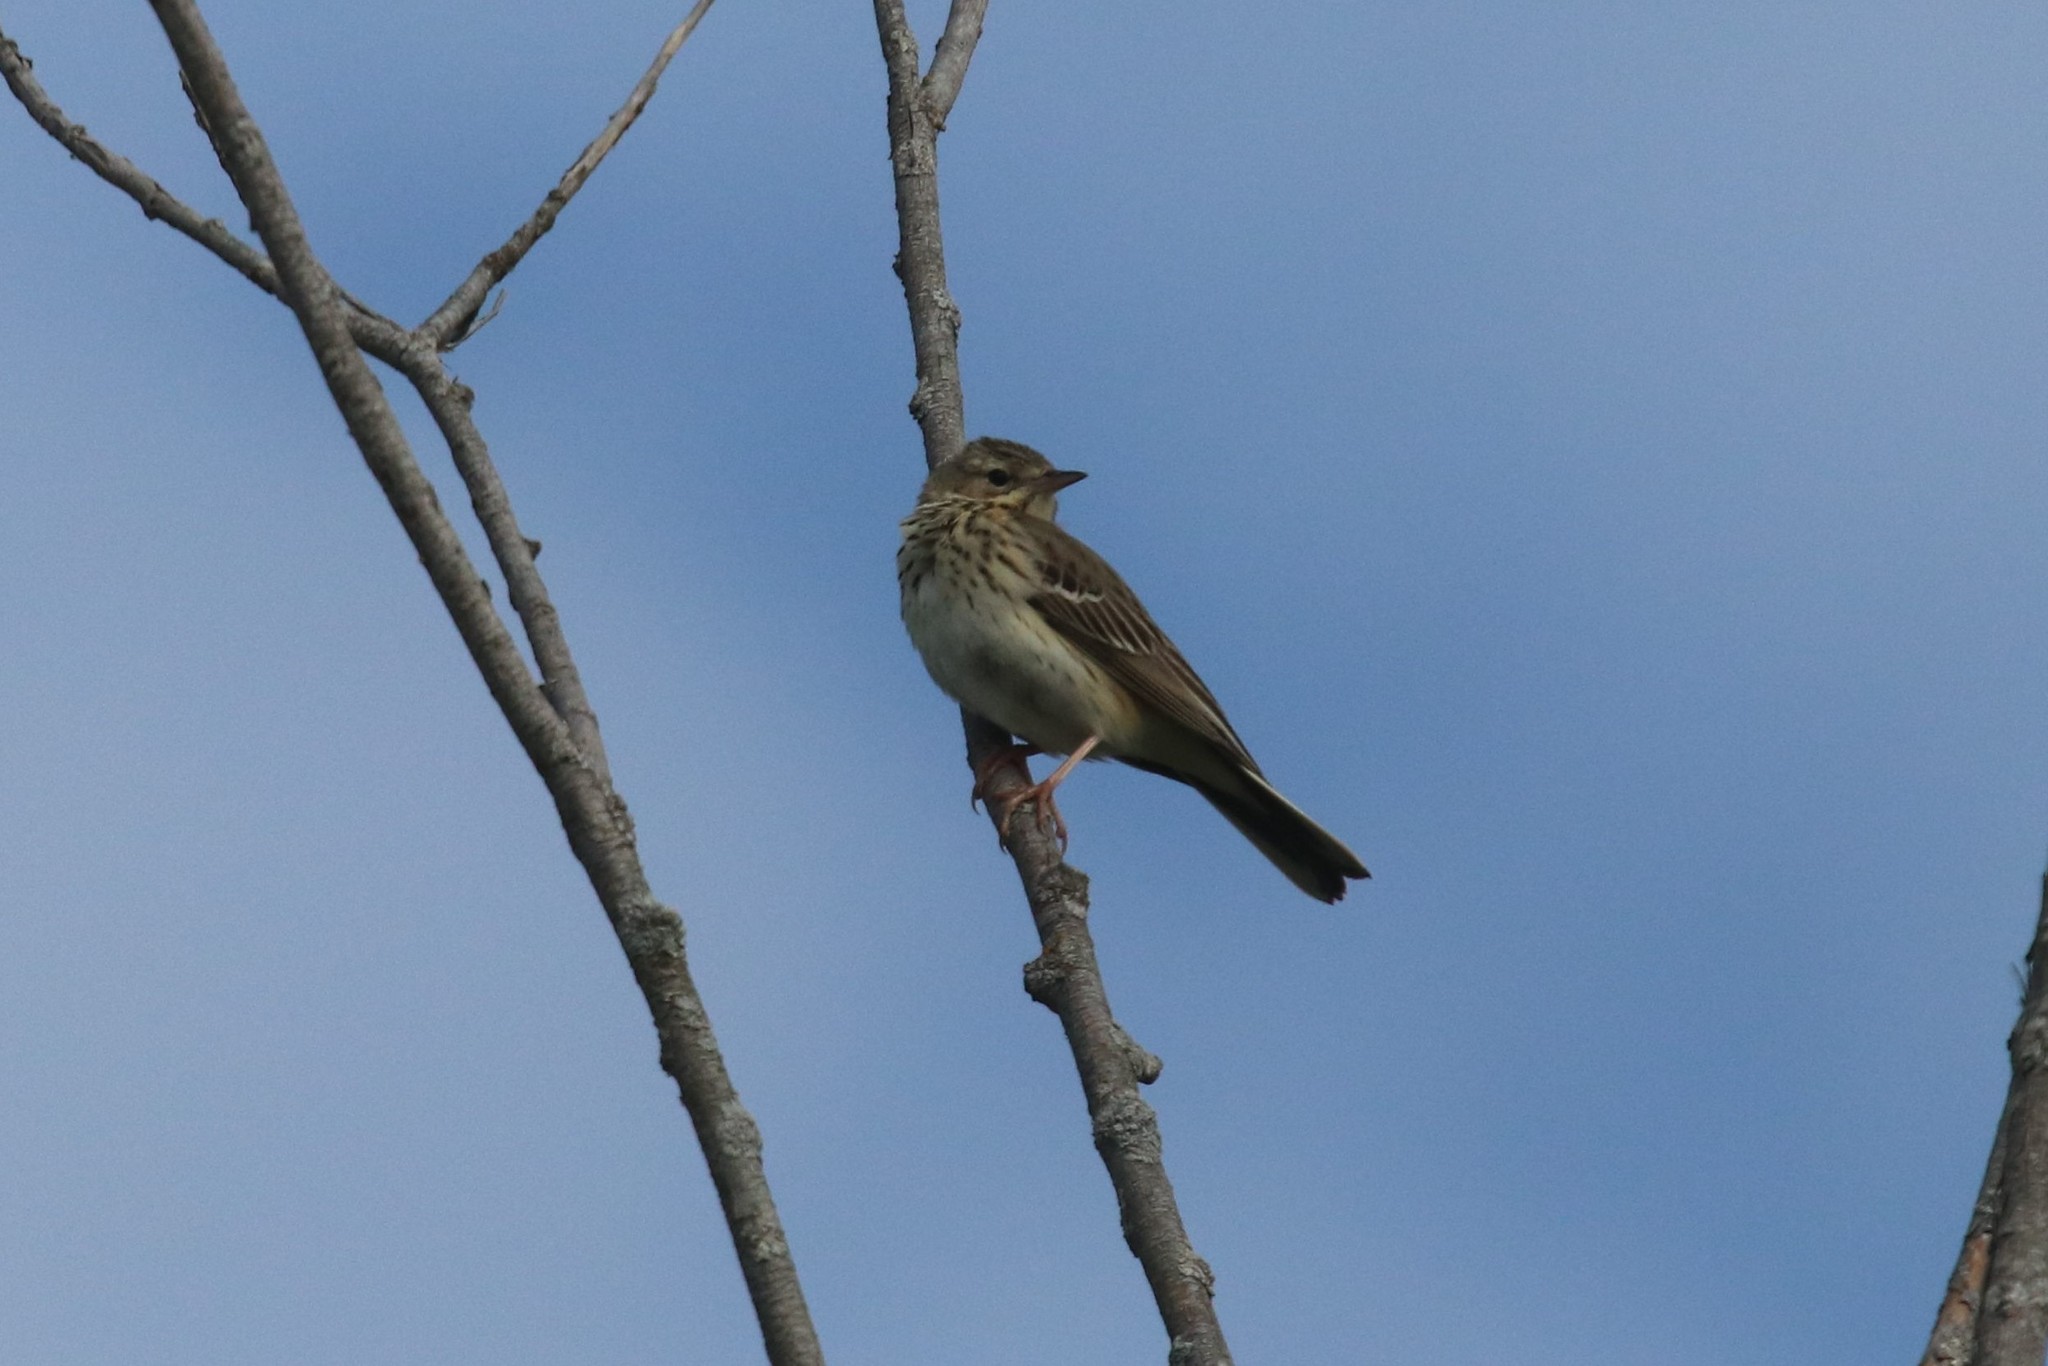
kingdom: Animalia
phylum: Chordata
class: Aves
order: Passeriformes
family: Motacillidae
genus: Anthus
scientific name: Anthus trivialis
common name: Tree pipit
